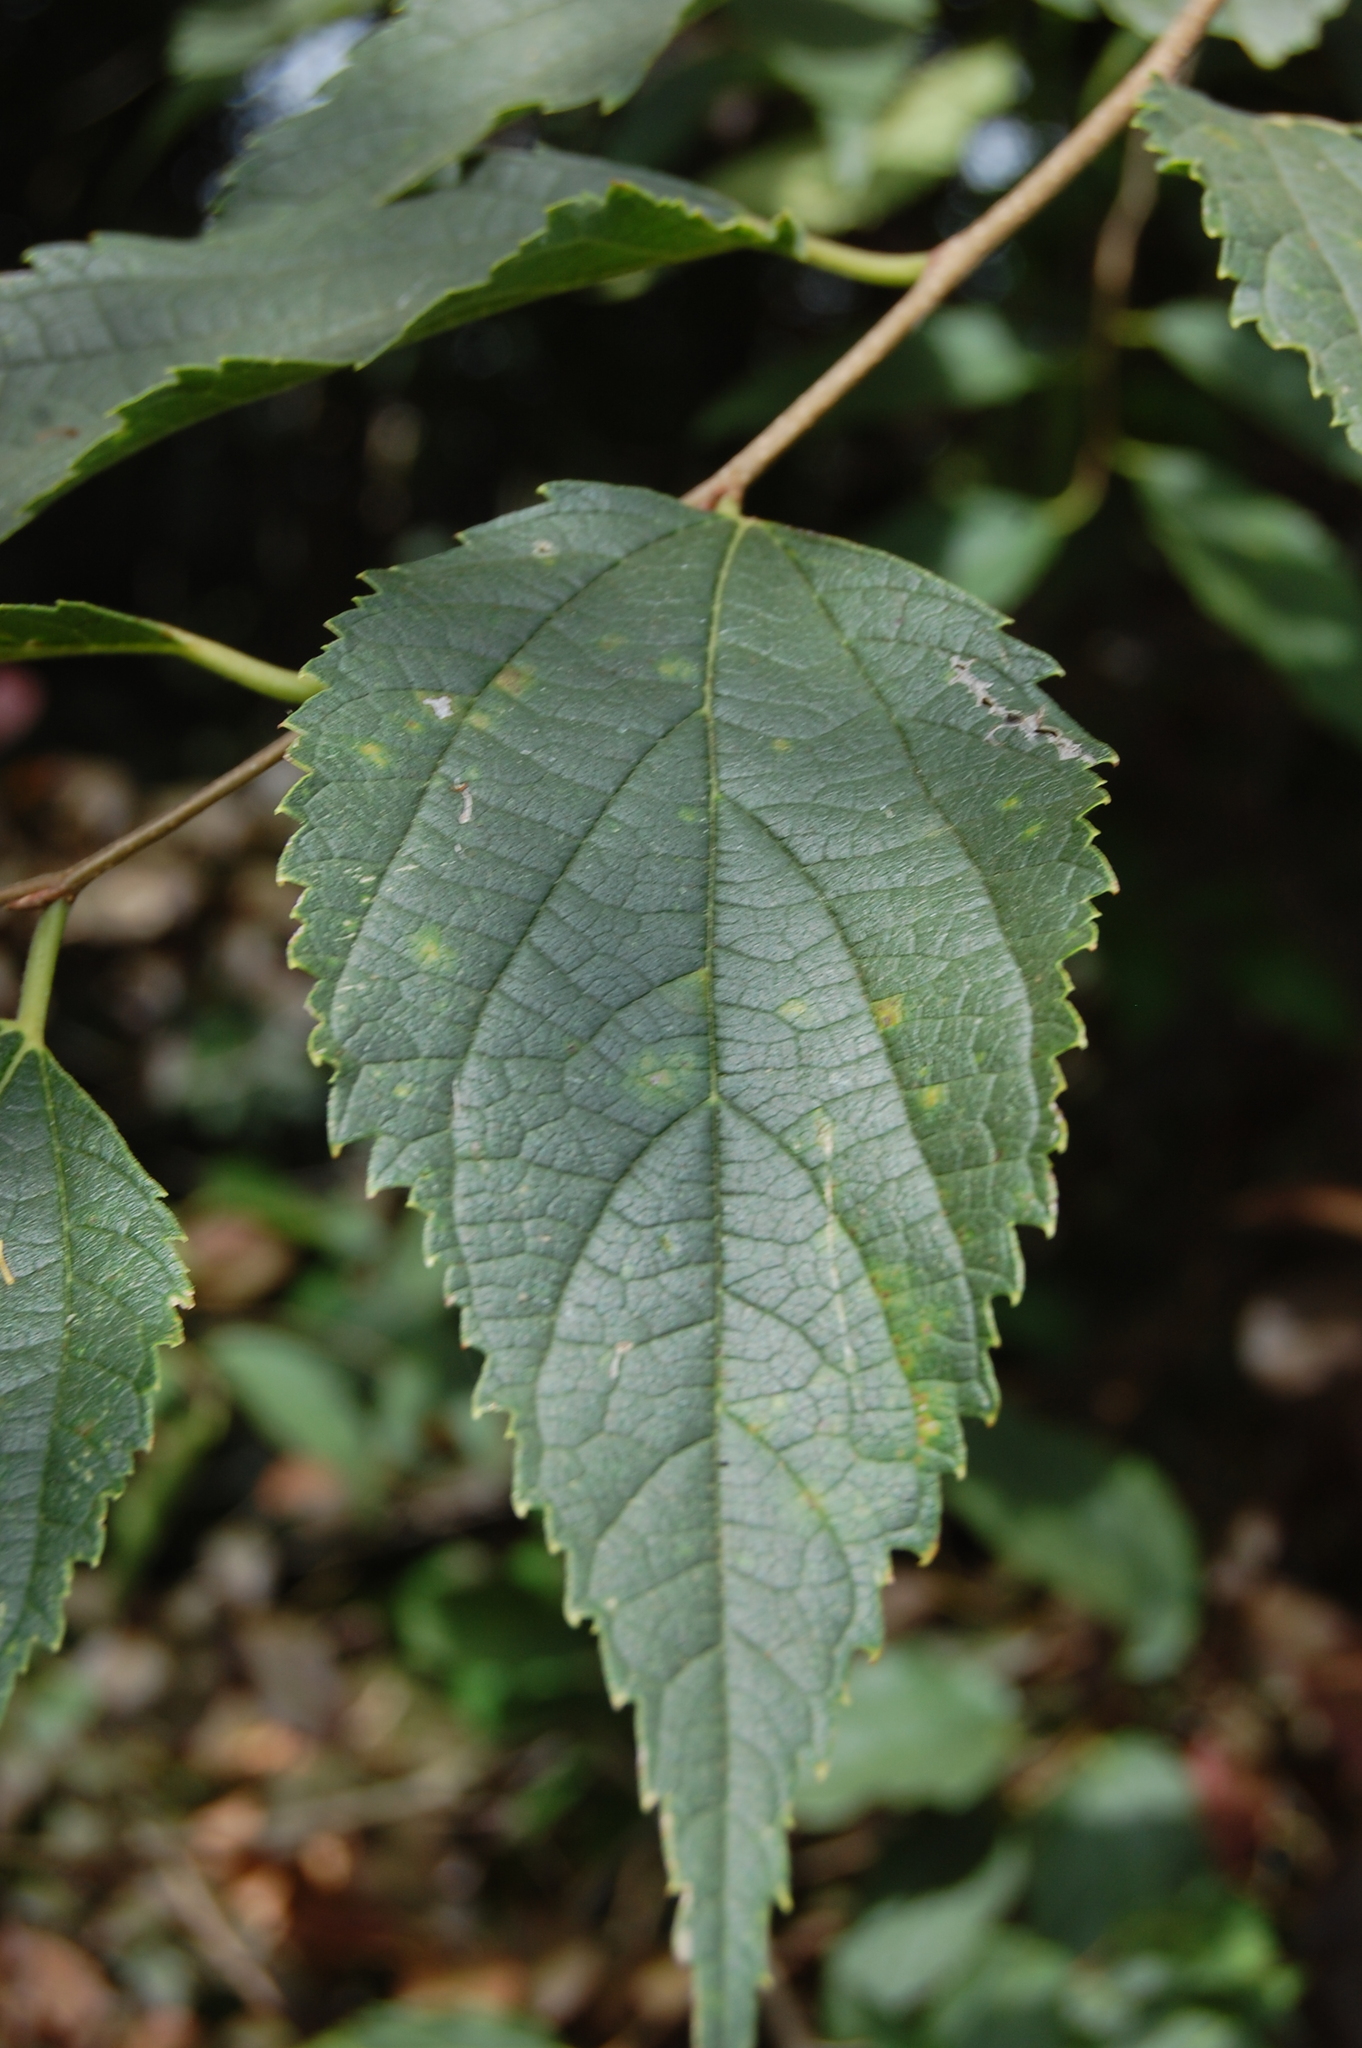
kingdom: Plantae
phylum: Tracheophyta
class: Magnoliopsida
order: Rosales
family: Cannabaceae
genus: Celtis
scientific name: Celtis australis
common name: European hackberry
